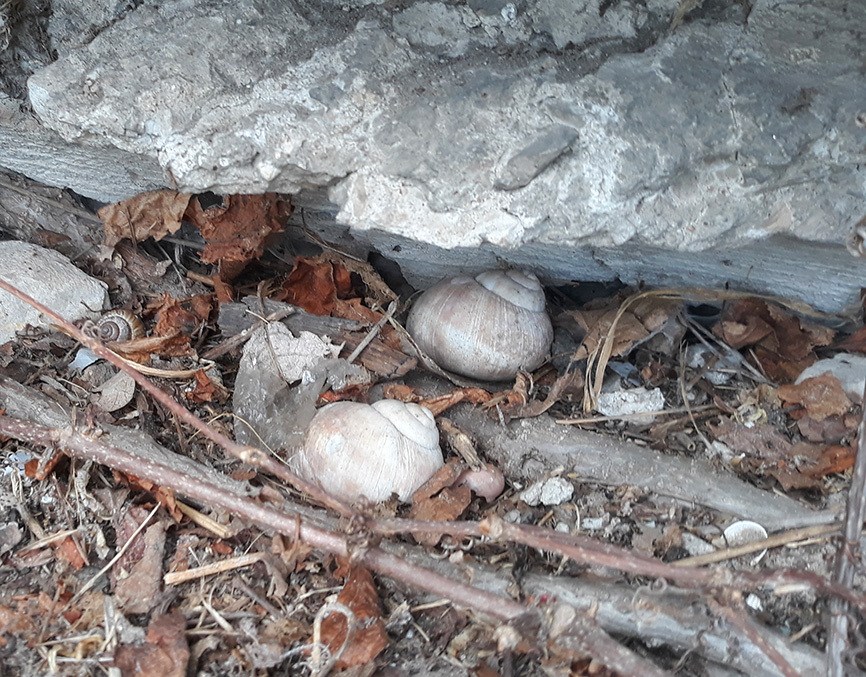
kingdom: Animalia
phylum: Mollusca
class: Gastropoda
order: Stylommatophora
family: Helicidae
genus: Helix
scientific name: Helix pomatia
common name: Roman snail
